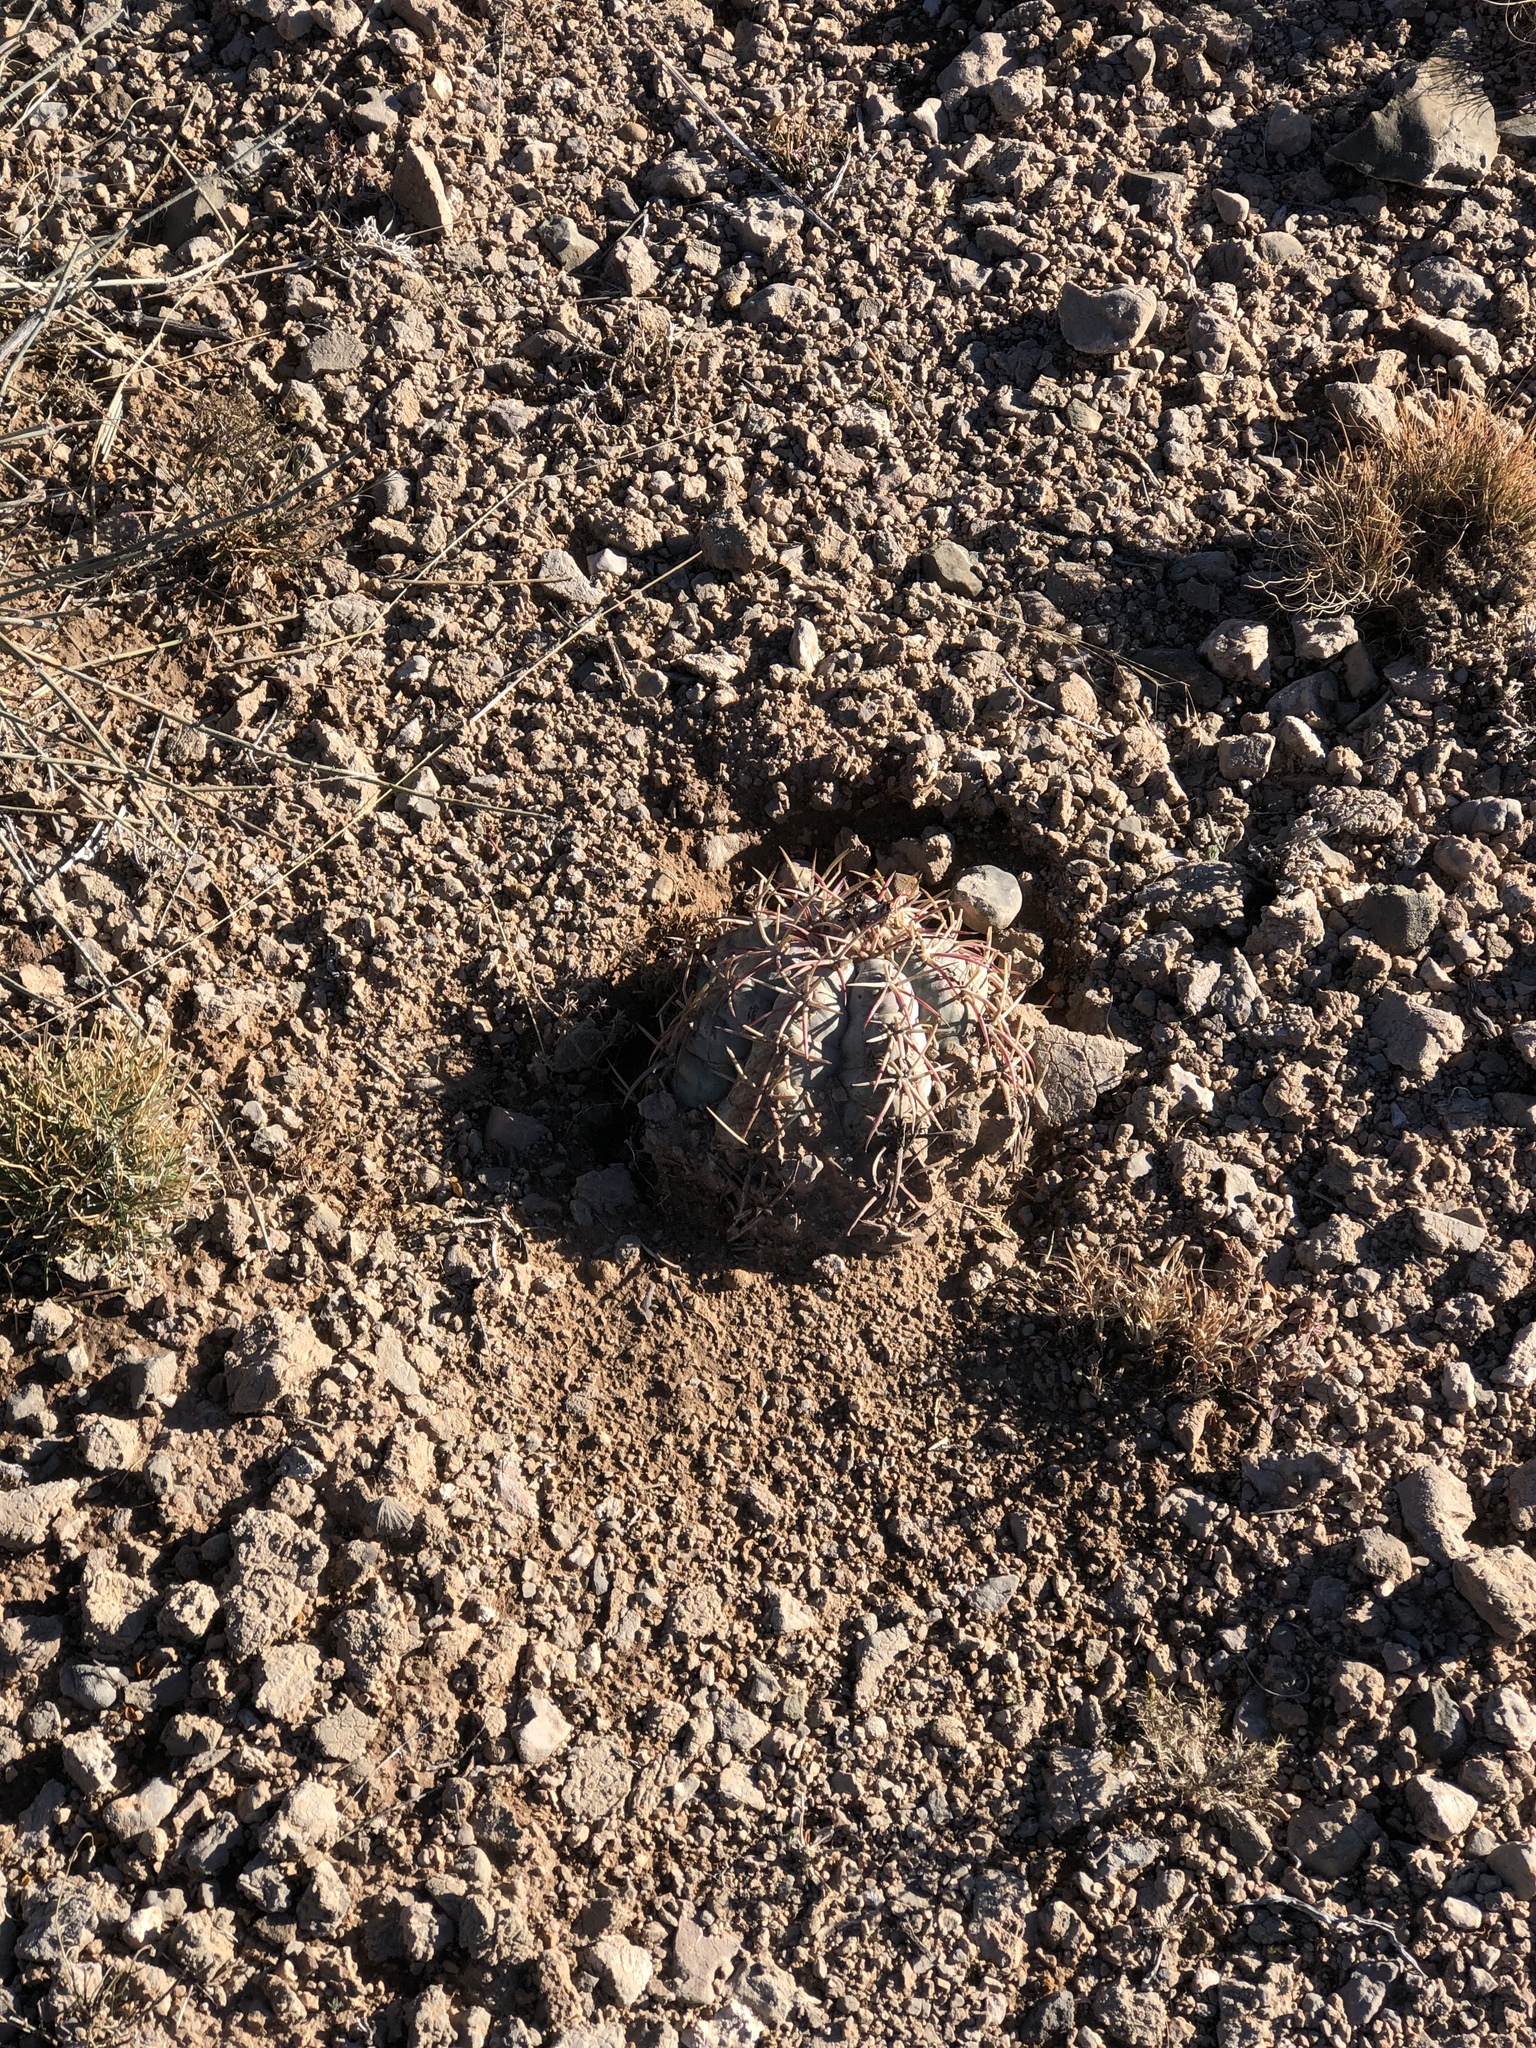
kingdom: Plantae
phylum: Tracheophyta
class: Magnoliopsida
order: Caryophyllales
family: Cactaceae
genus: Echinocactus
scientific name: Echinocactus horizonthalonius
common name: Devilshead
